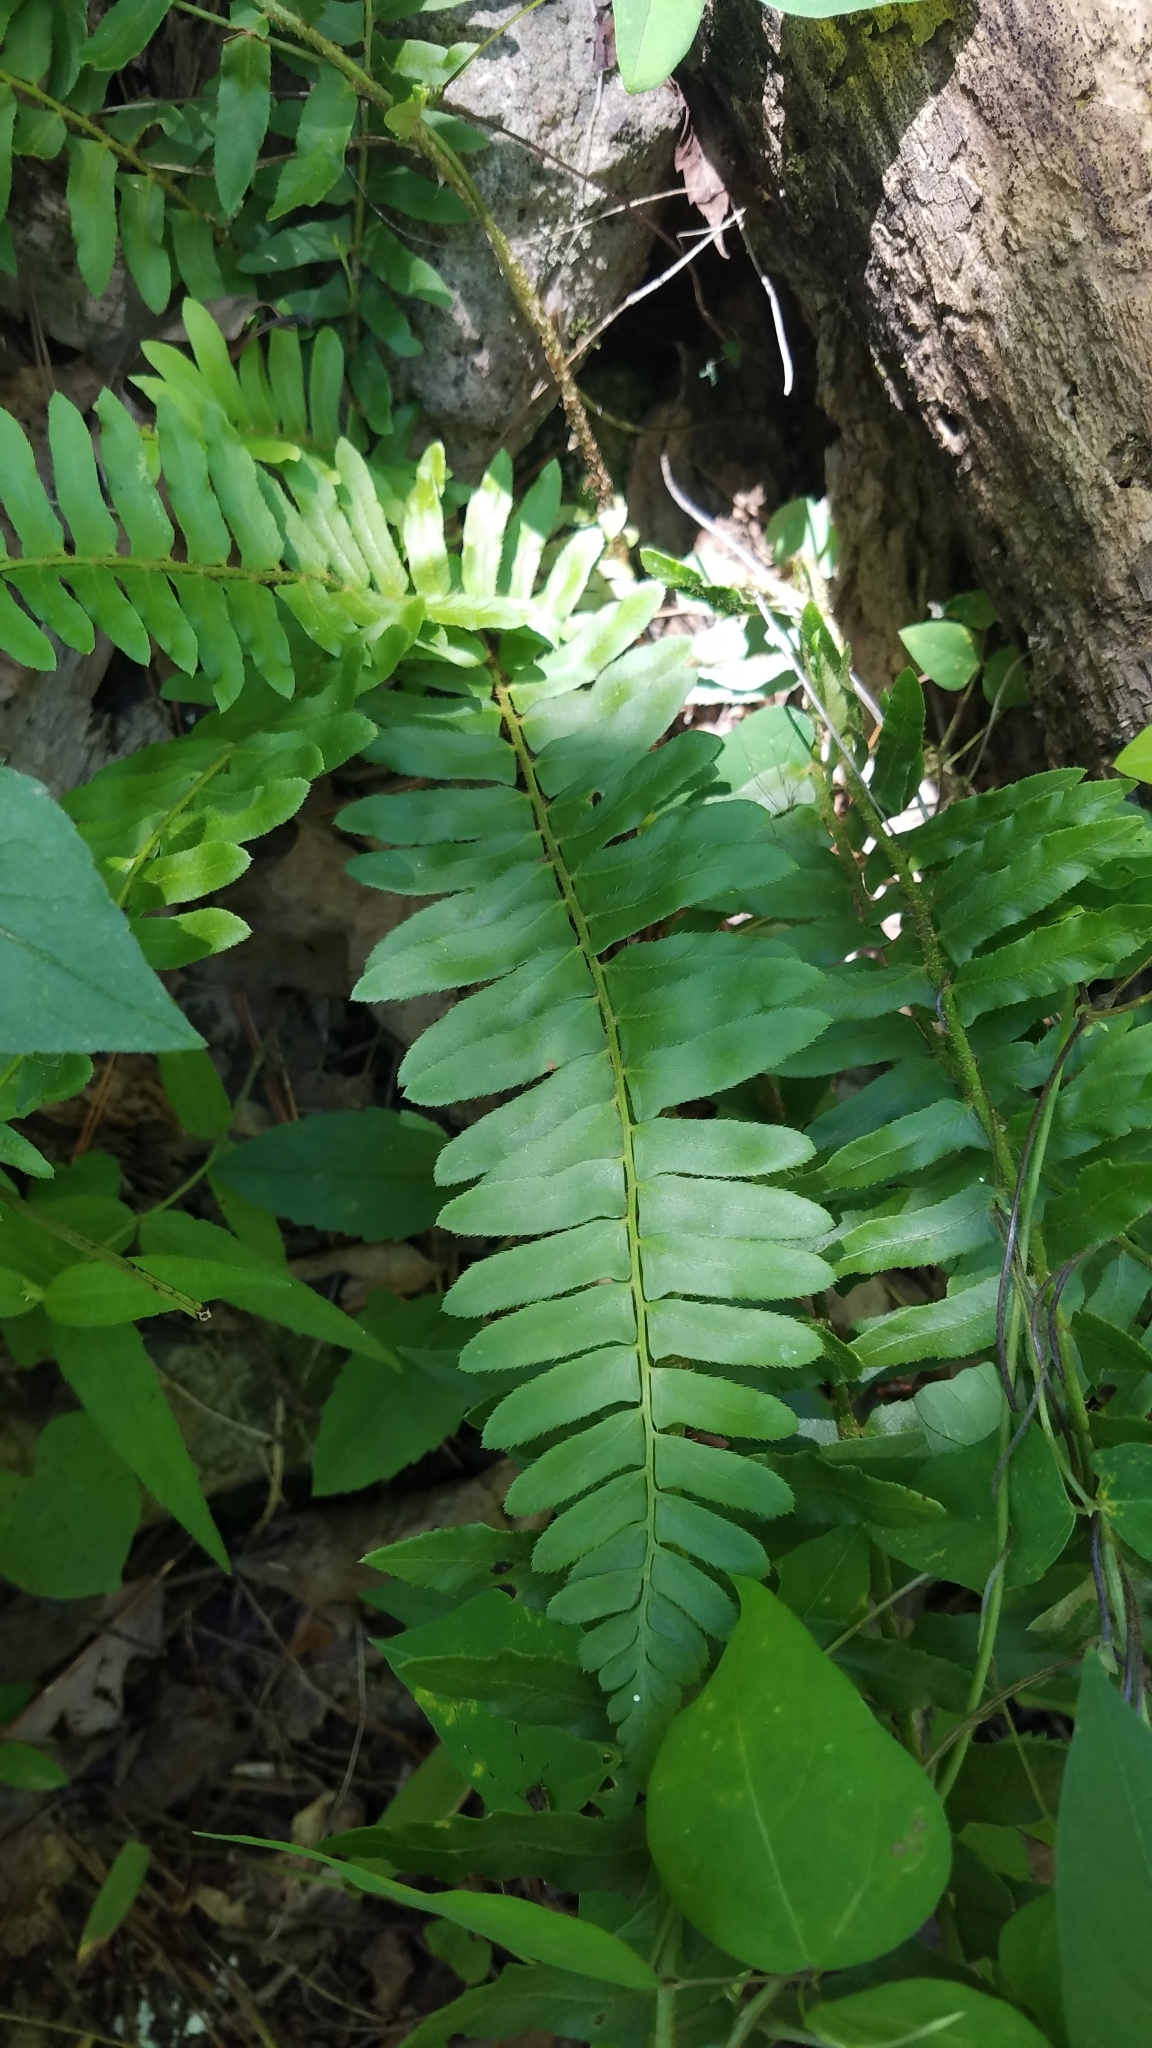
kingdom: Plantae
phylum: Tracheophyta
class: Polypodiopsida
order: Polypodiales
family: Dryopteridaceae
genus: Polystichum
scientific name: Polystichum acrostichoides
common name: Christmas fern
